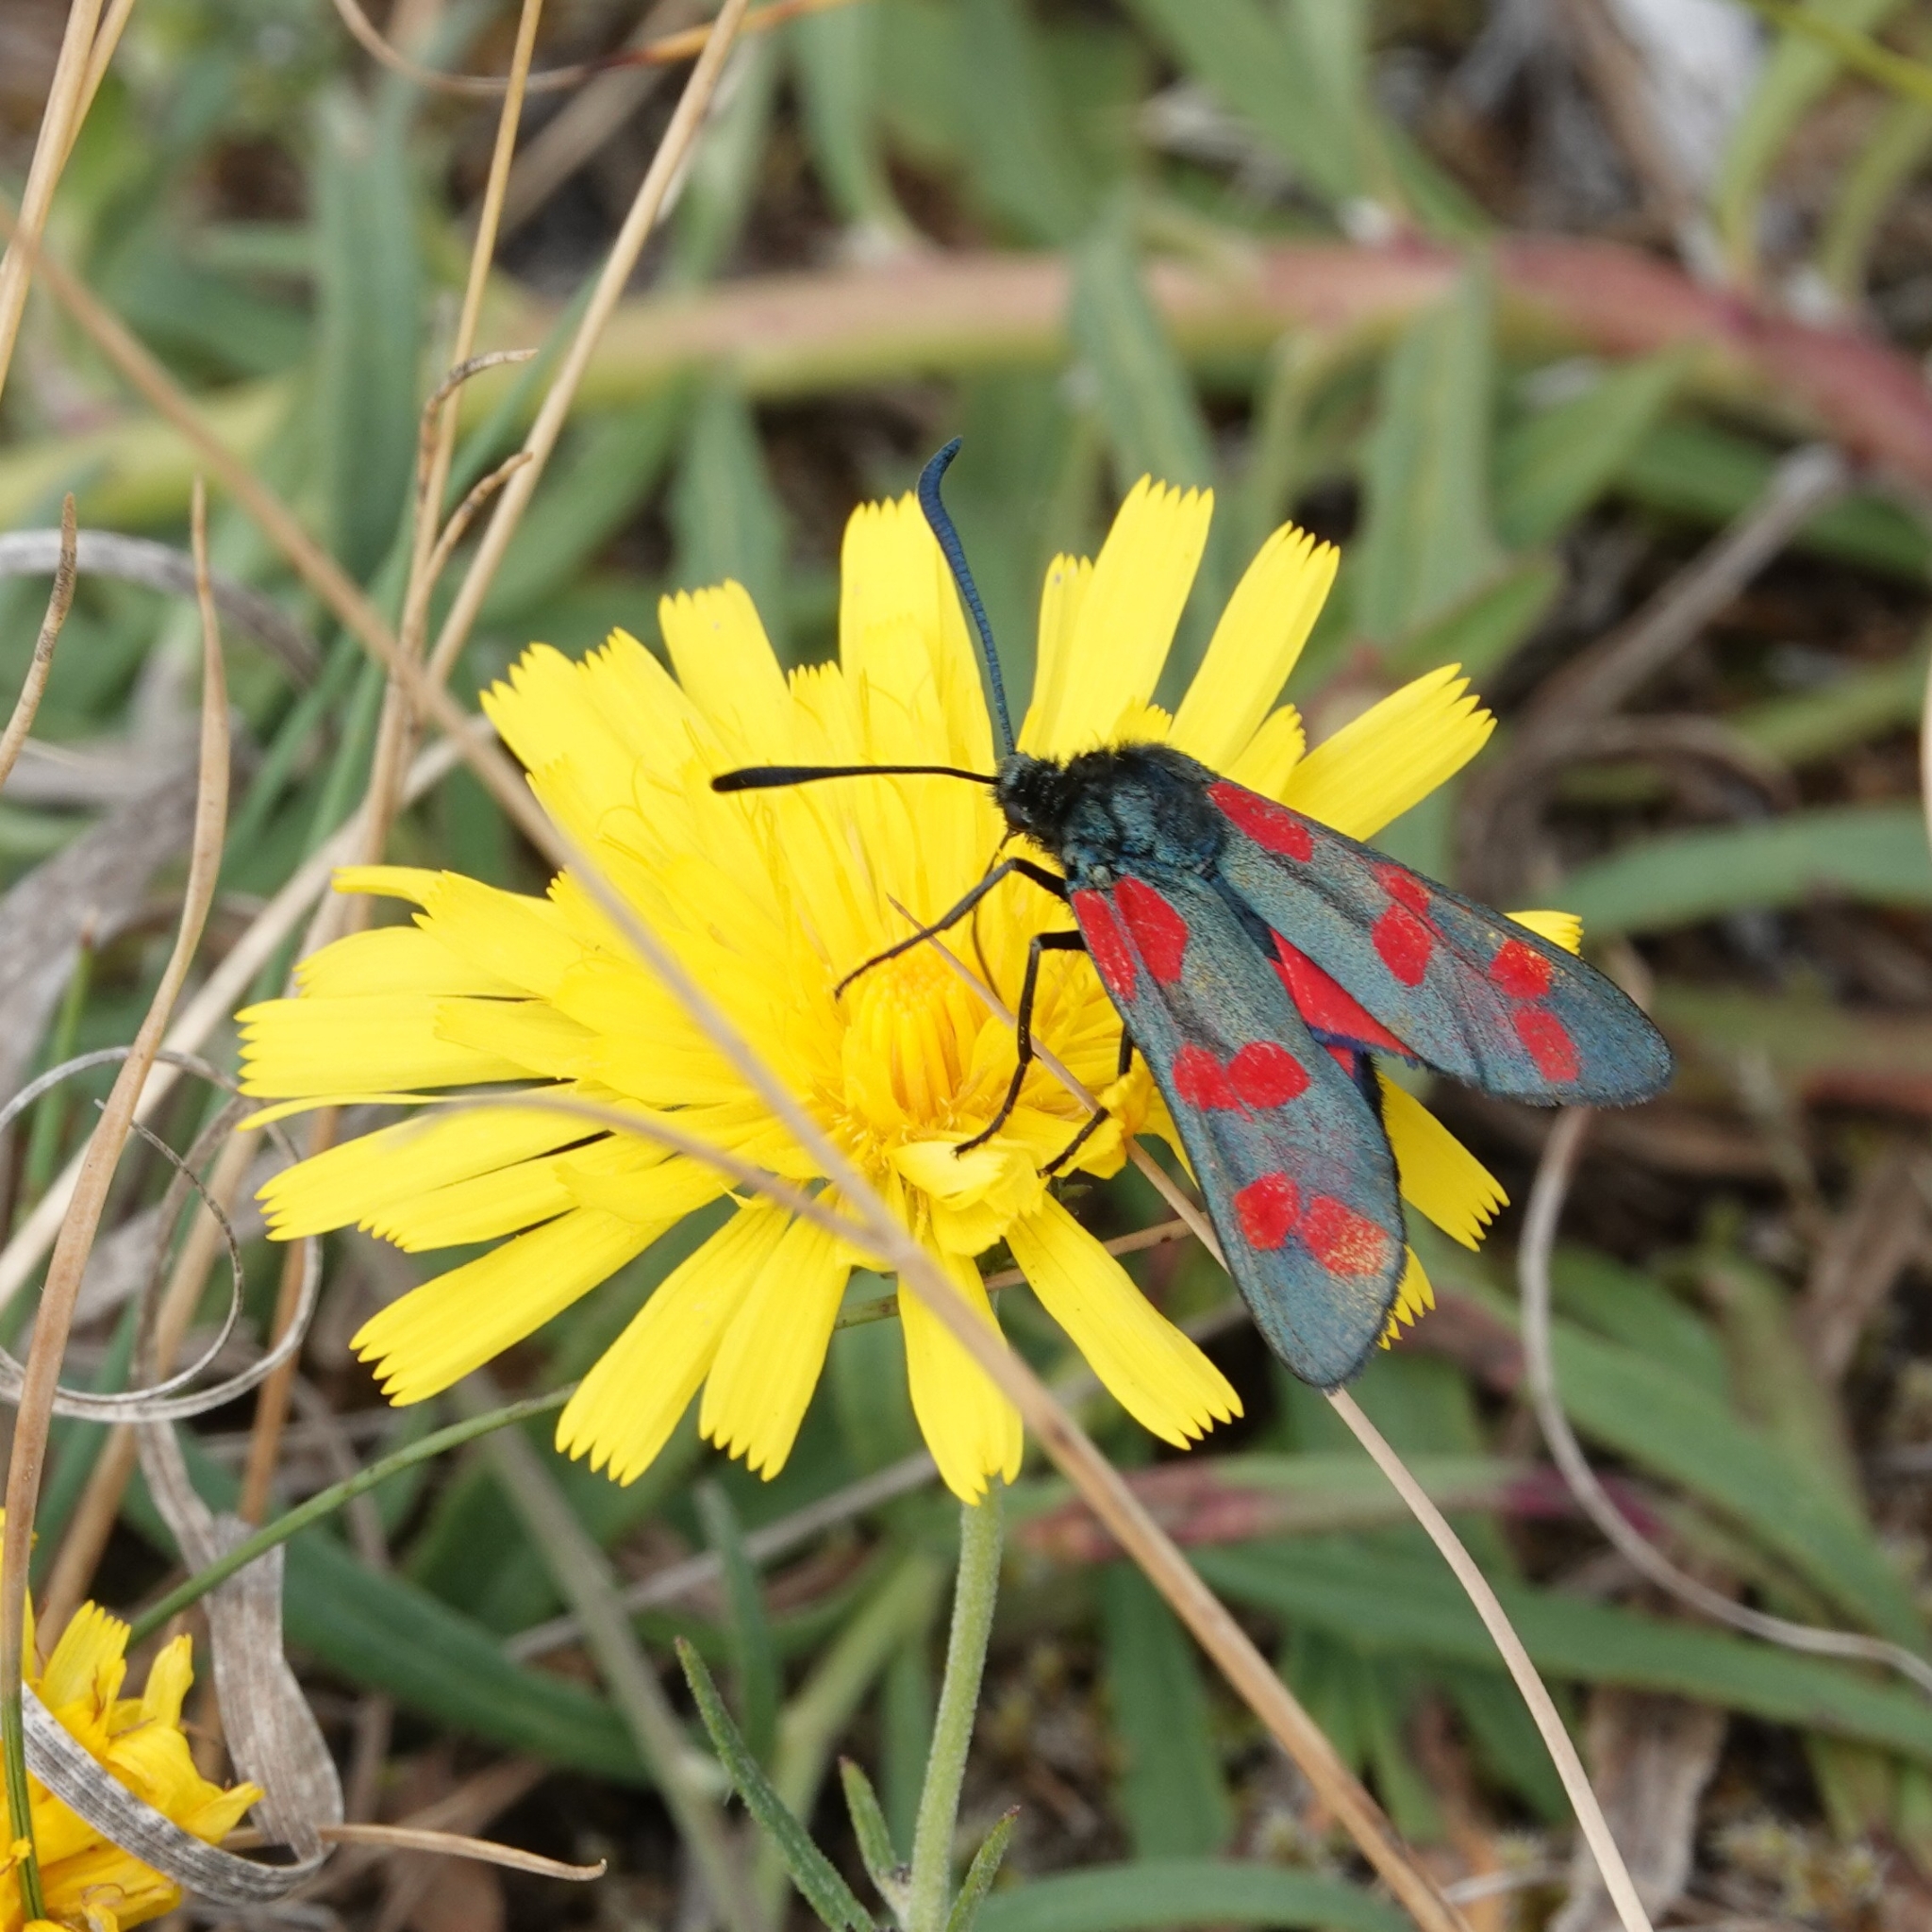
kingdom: Animalia
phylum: Arthropoda
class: Insecta
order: Lepidoptera
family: Zygaenidae
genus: Zygaena
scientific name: Zygaena filipendulae
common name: Six-spot burnet
